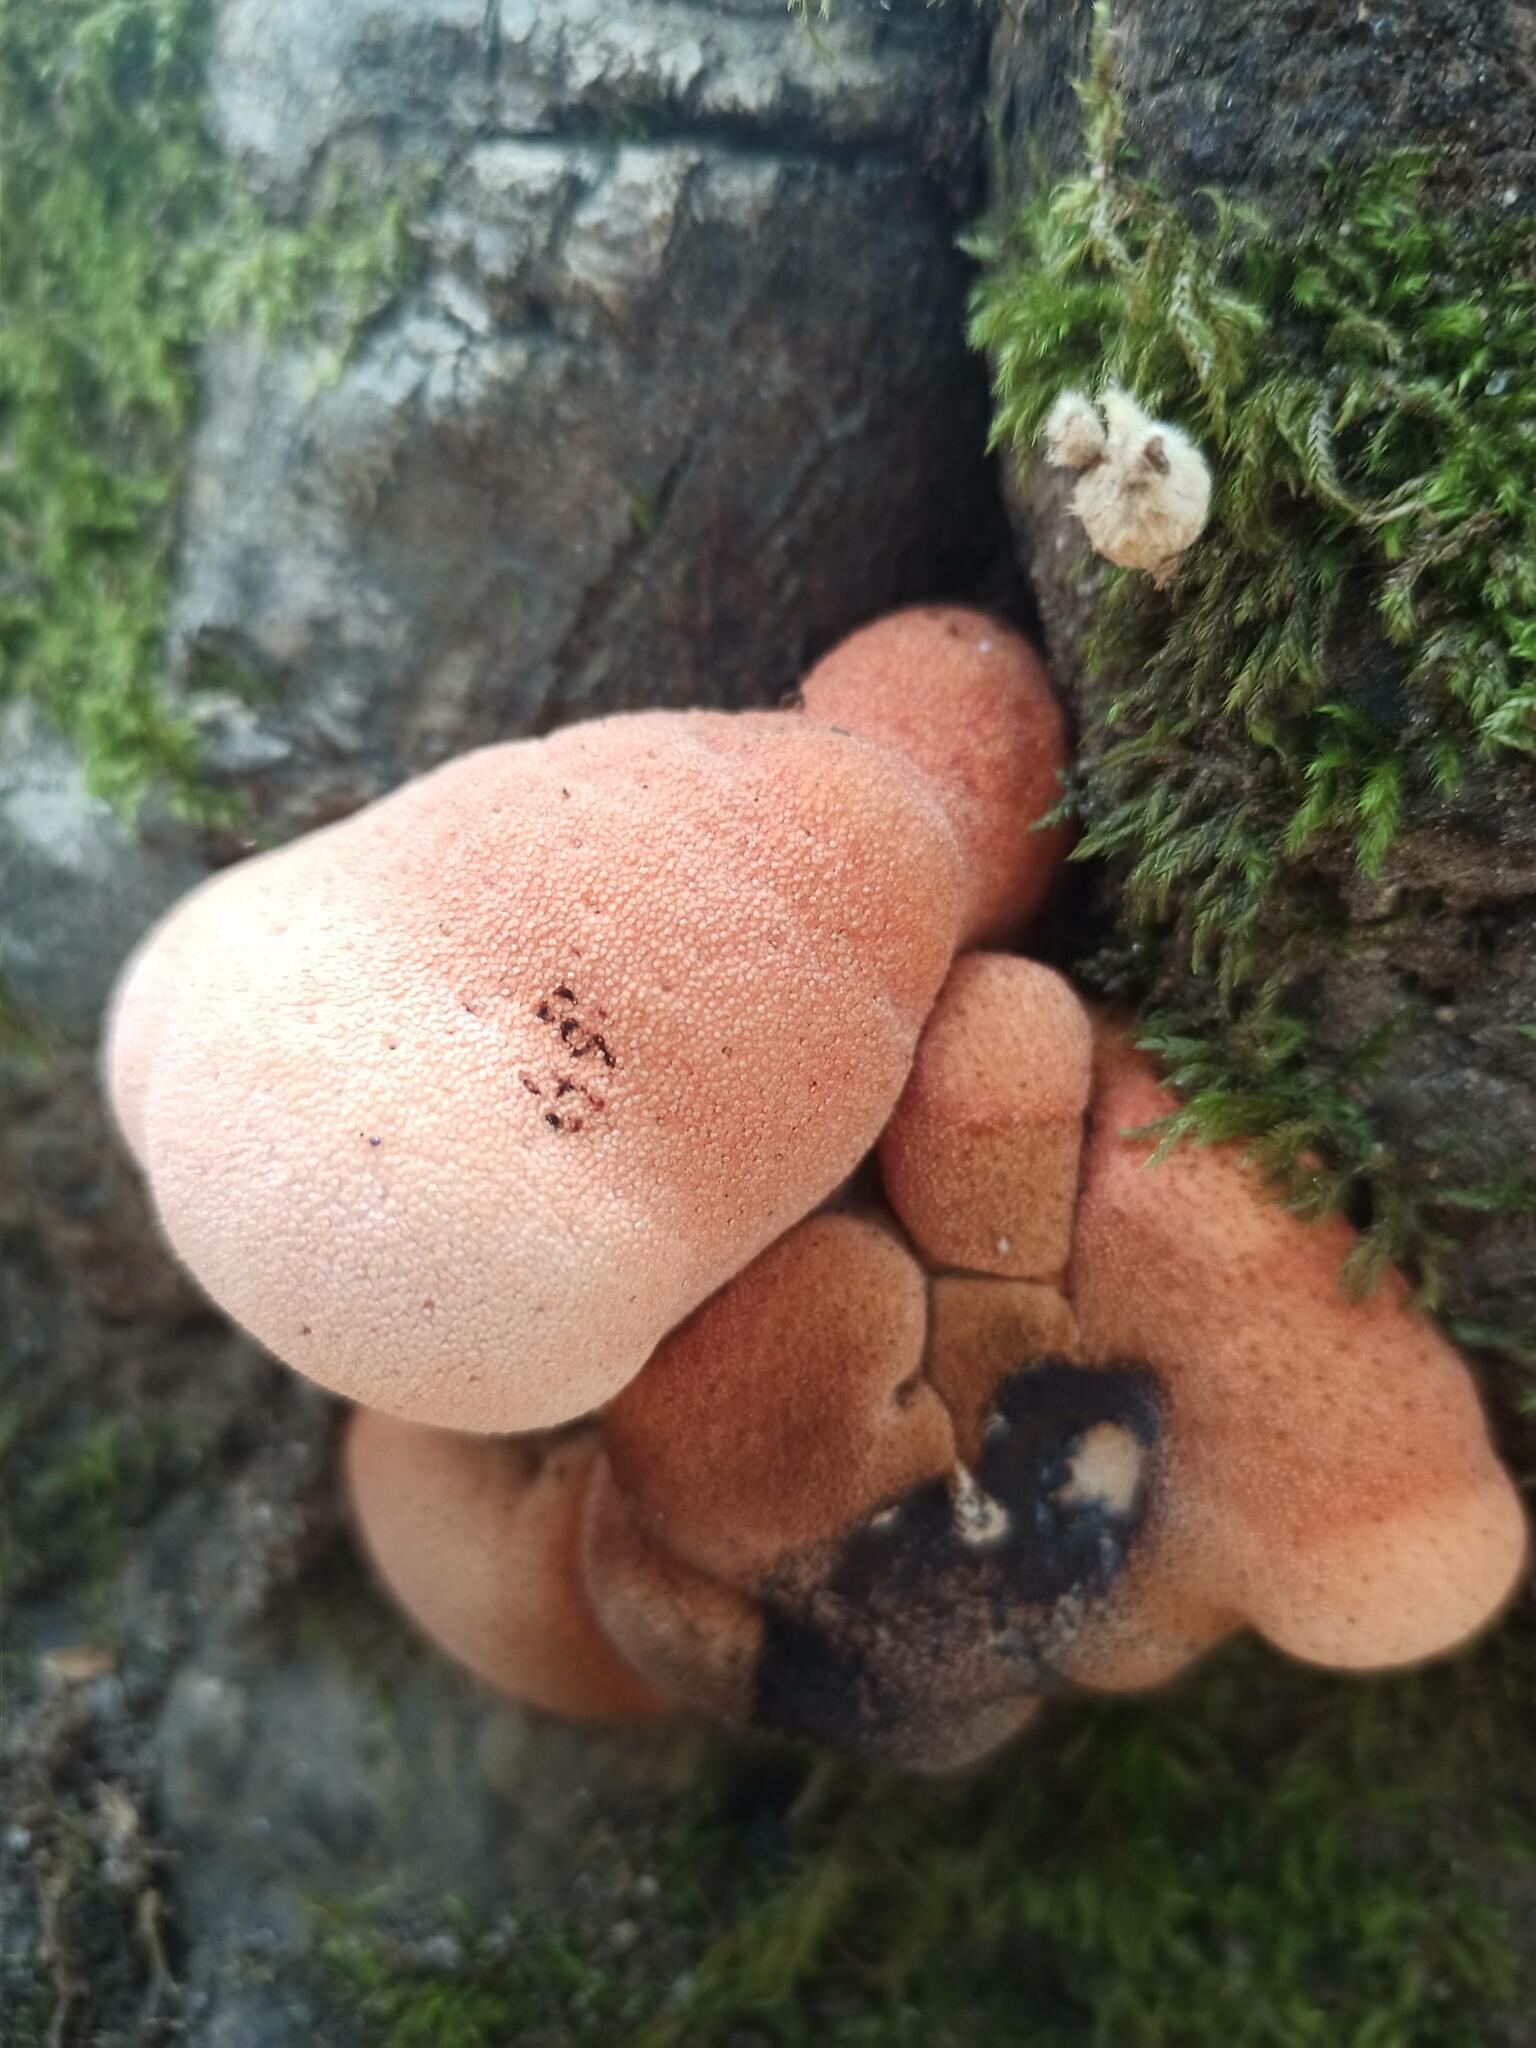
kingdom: Fungi
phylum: Basidiomycota
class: Agaricomycetes
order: Agaricales
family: Fistulinaceae
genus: Fistulina
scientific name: Fistulina hepatica
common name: Beef-steak fungus
